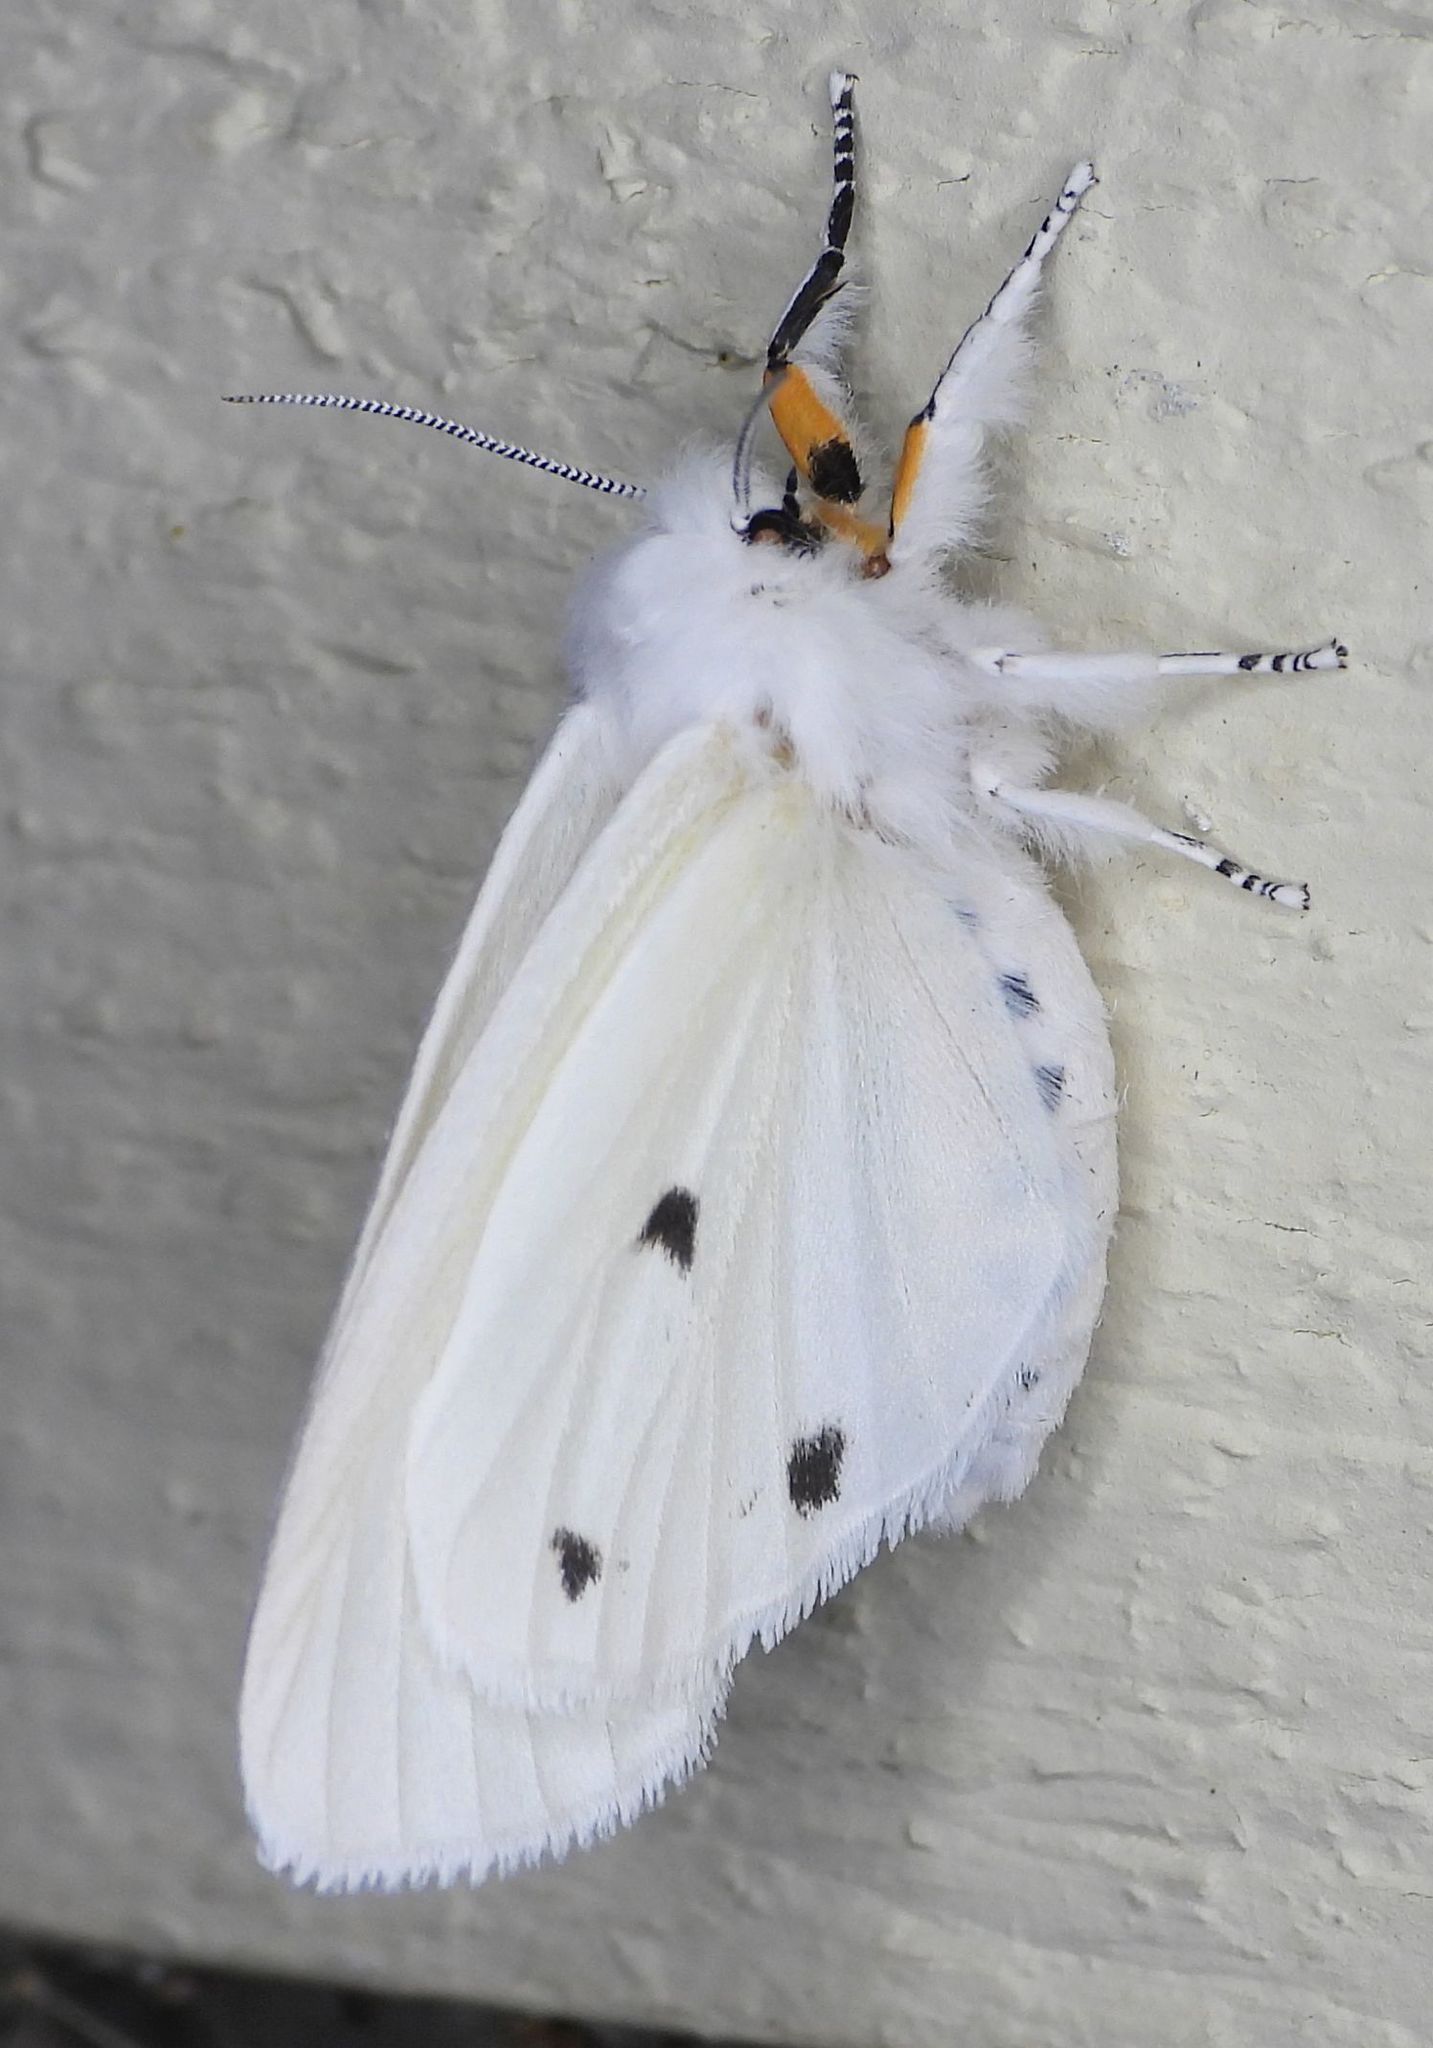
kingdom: Animalia
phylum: Arthropoda
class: Insecta
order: Lepidoptera
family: Erebidae
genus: Spilosoma
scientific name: Spilosoma virginica
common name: Virginia tiger moth
